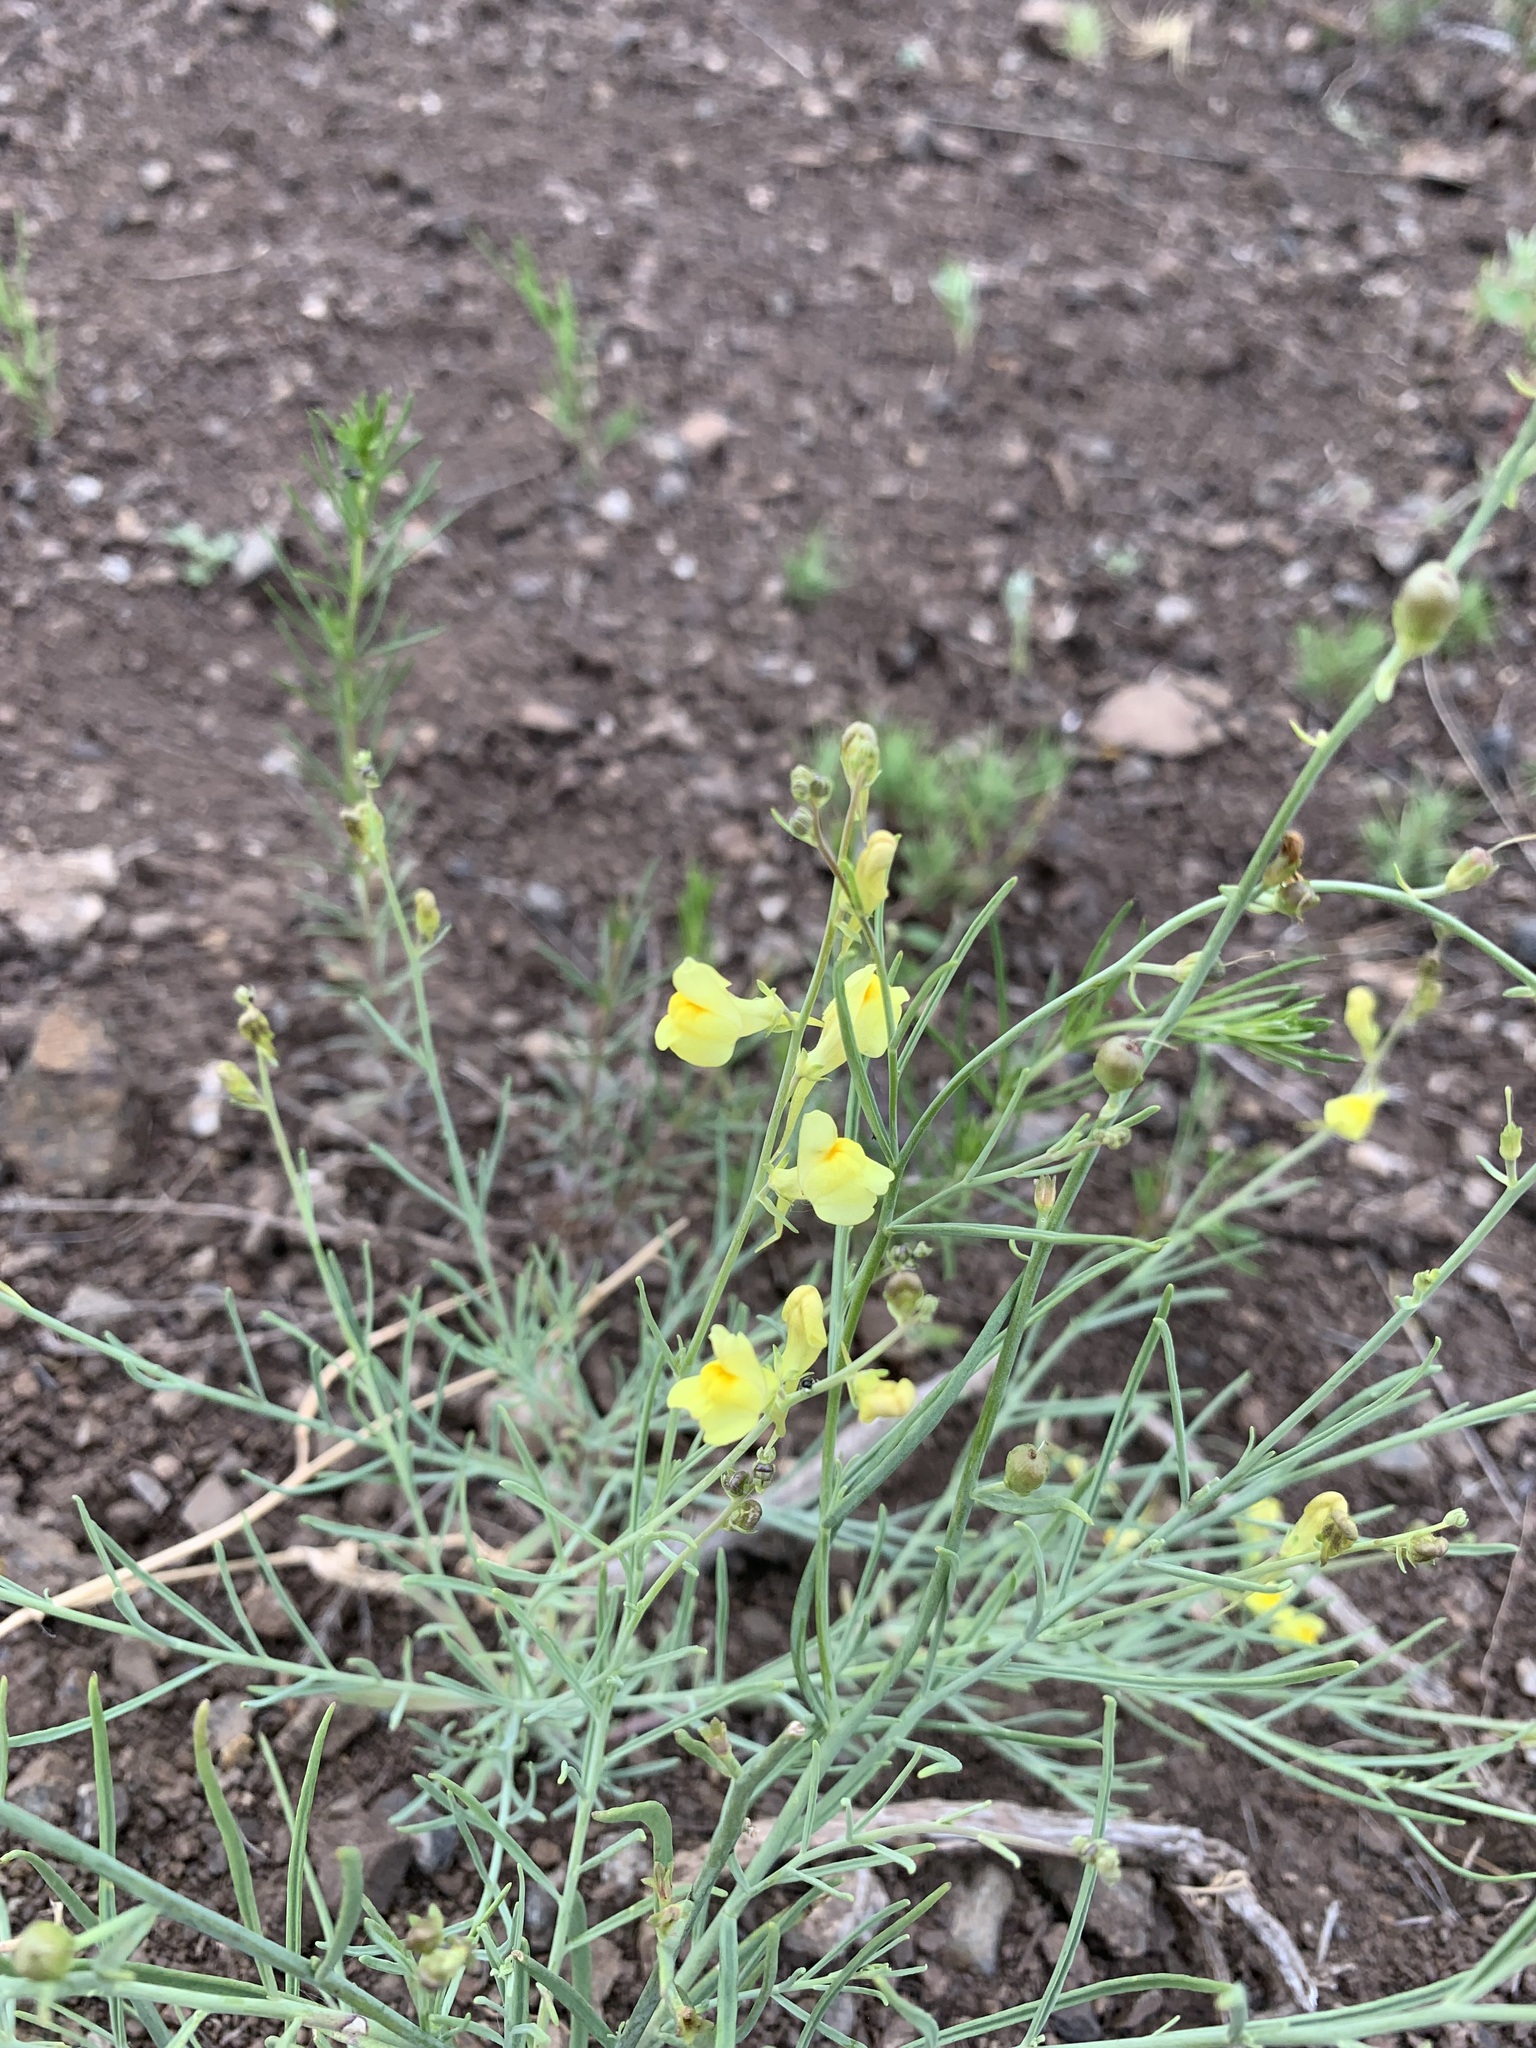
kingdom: Plantae
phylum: Tracheophyta
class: Magnoliopsida
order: Lamiales
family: Plantaginaceae
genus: Linaria
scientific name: Linaria odora
